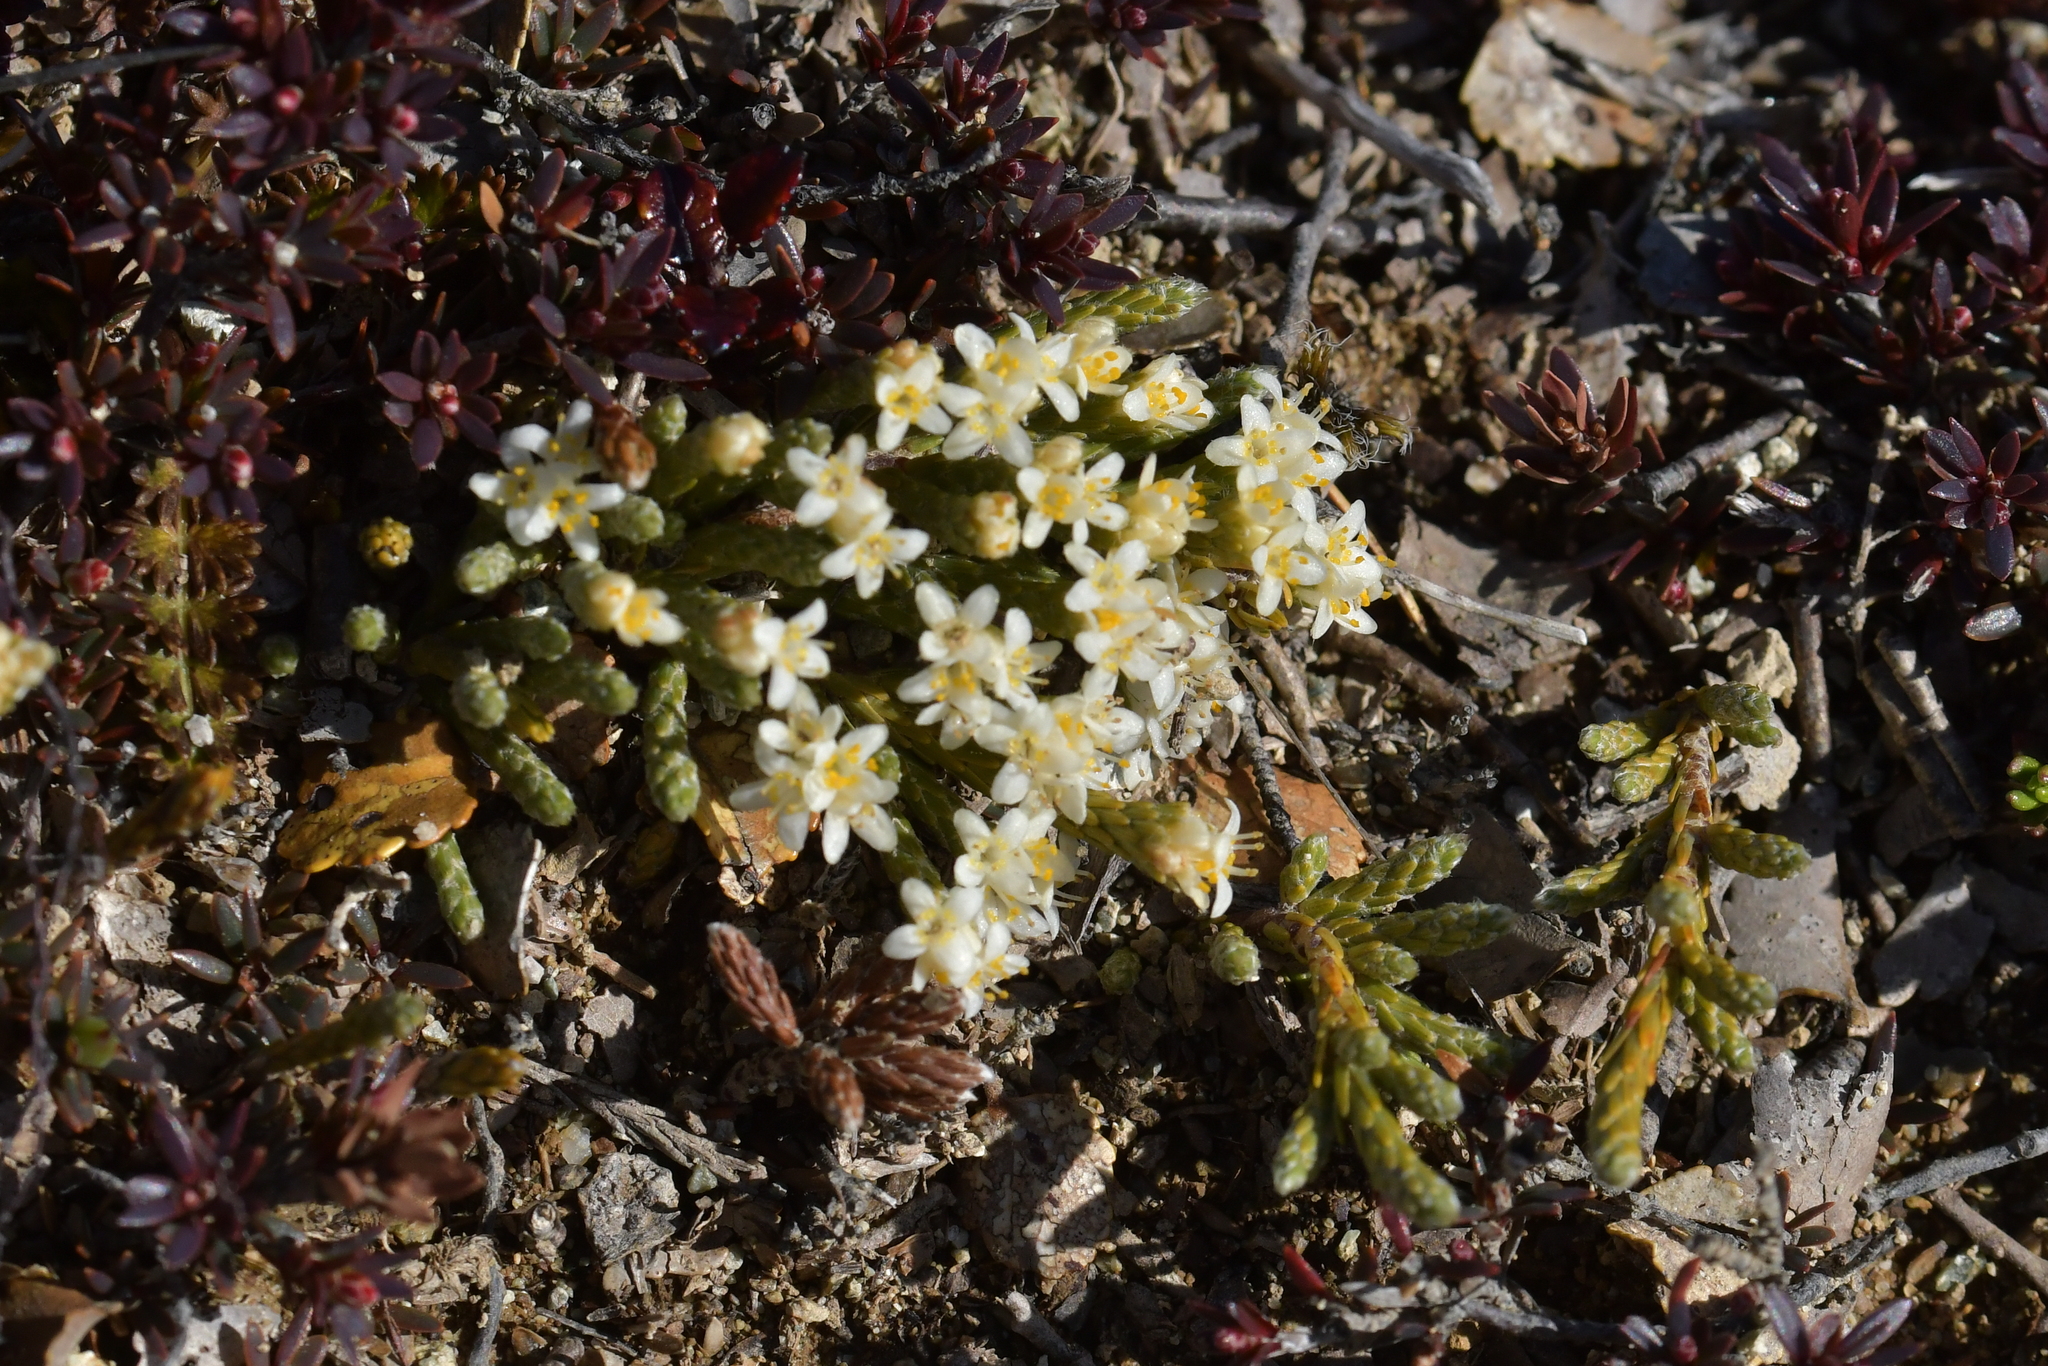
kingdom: Plantae
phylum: Tracheophyta
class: Magnoliopsida
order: Malvales
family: Thymelaeaceae
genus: Kelleria
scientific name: Kelleria dieffenbachii
